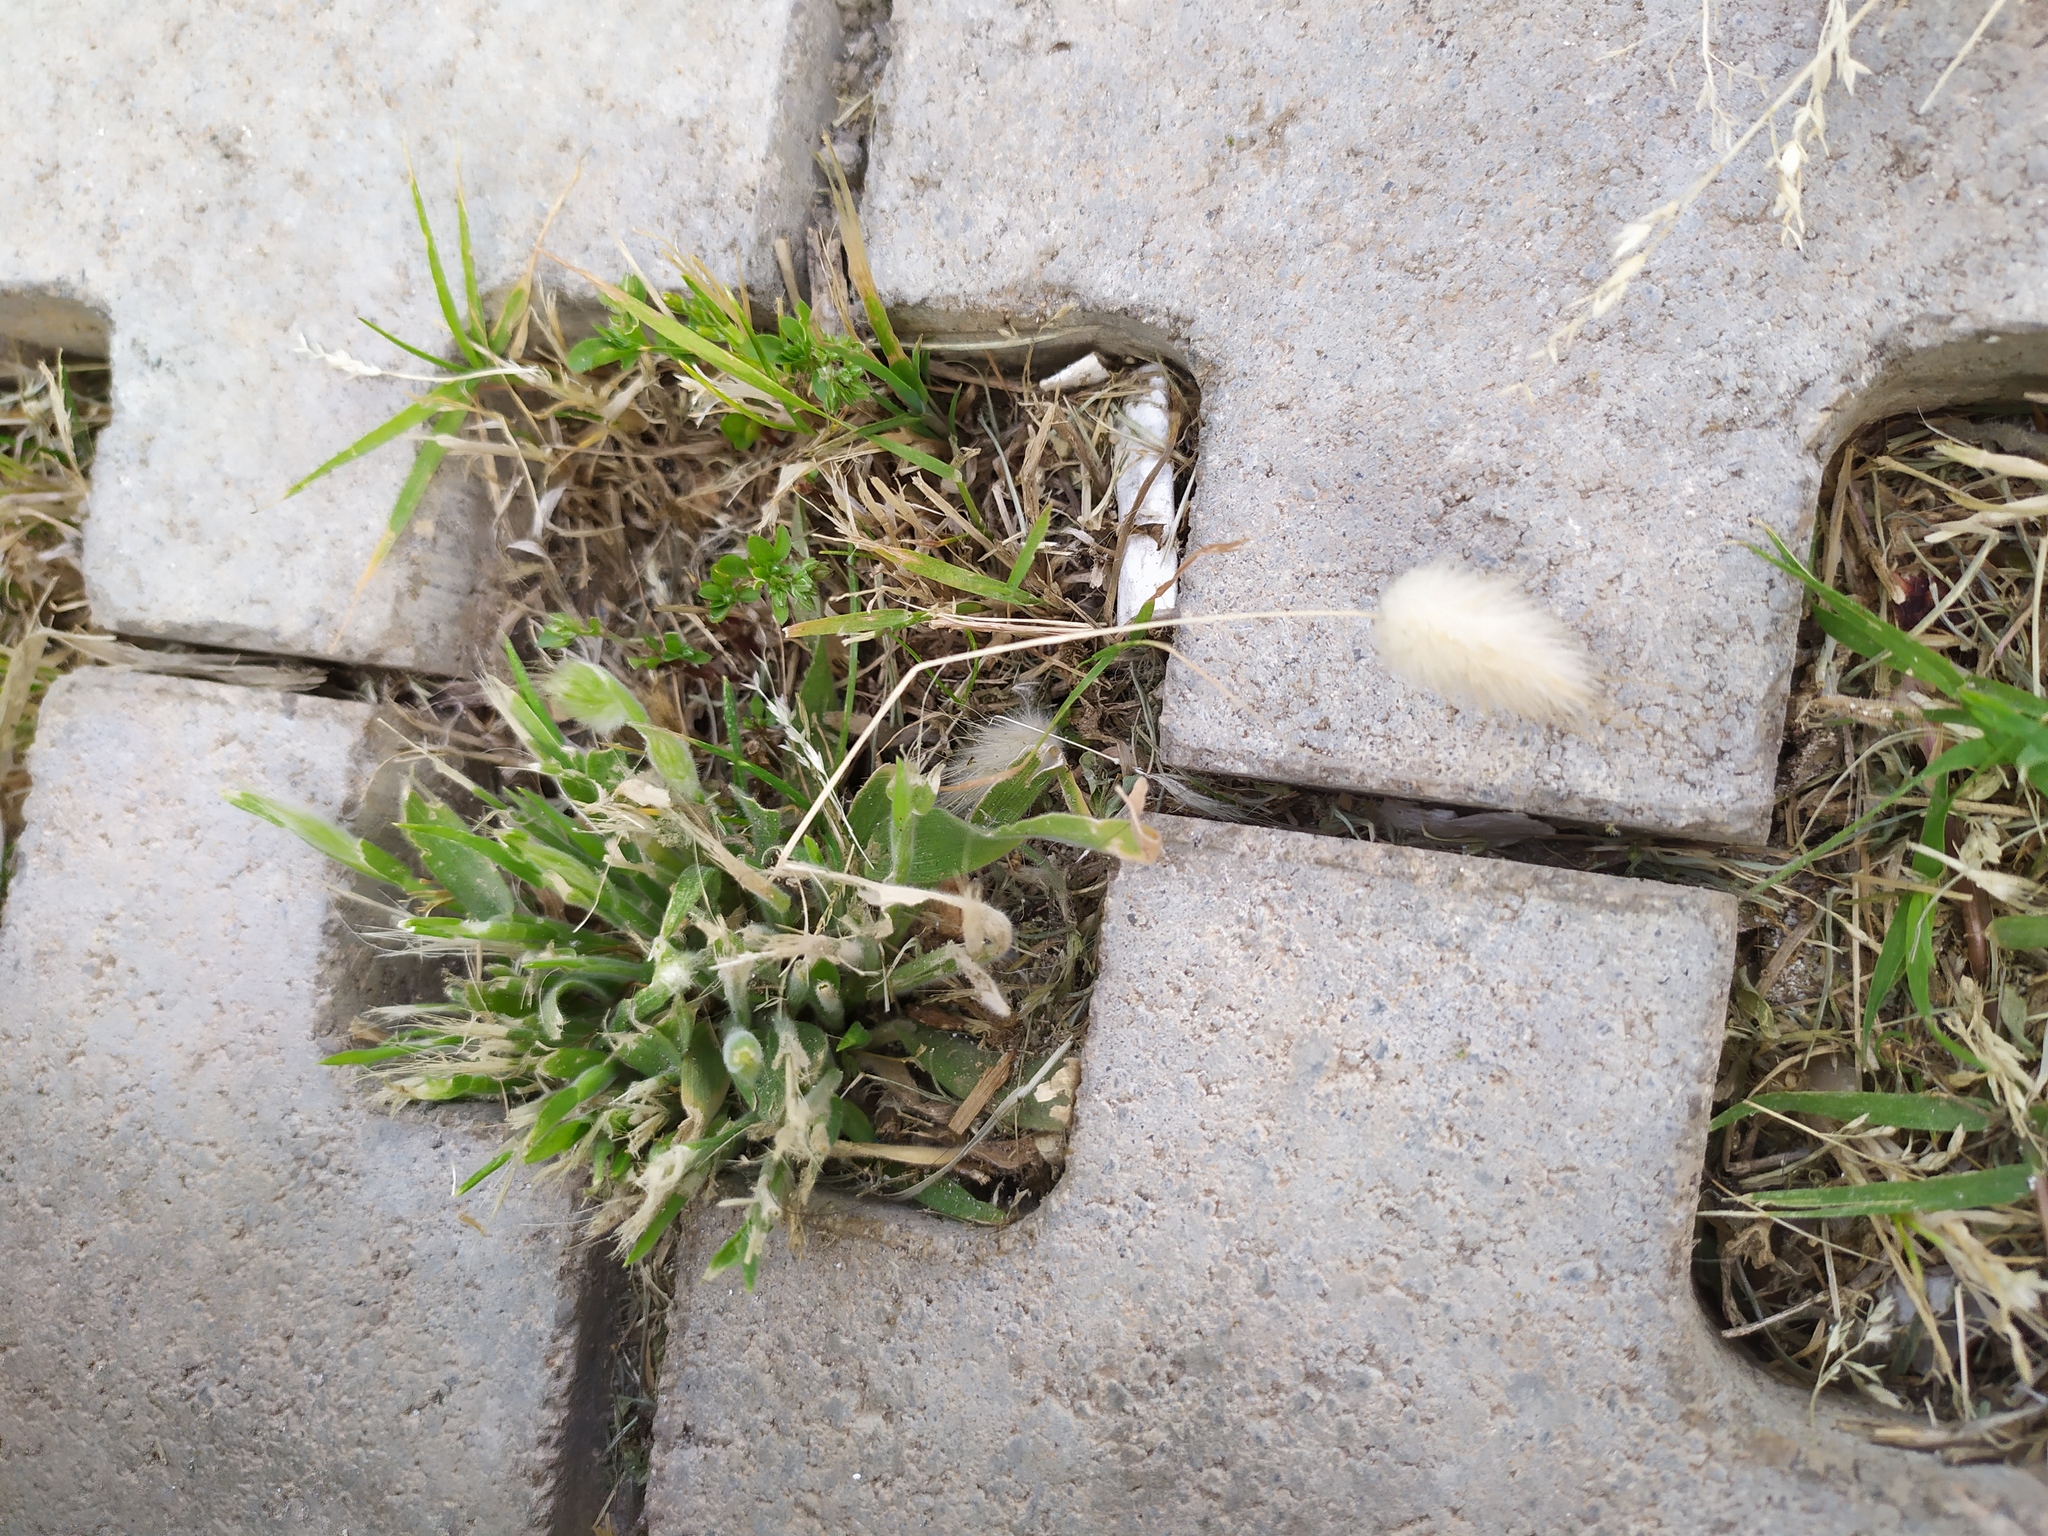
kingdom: Plantae
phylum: Tracheophyta
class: Liliopsida
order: Poales
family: Poaceae
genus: Lagurus
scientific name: Lagurus ovatus
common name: Hare's-tail
